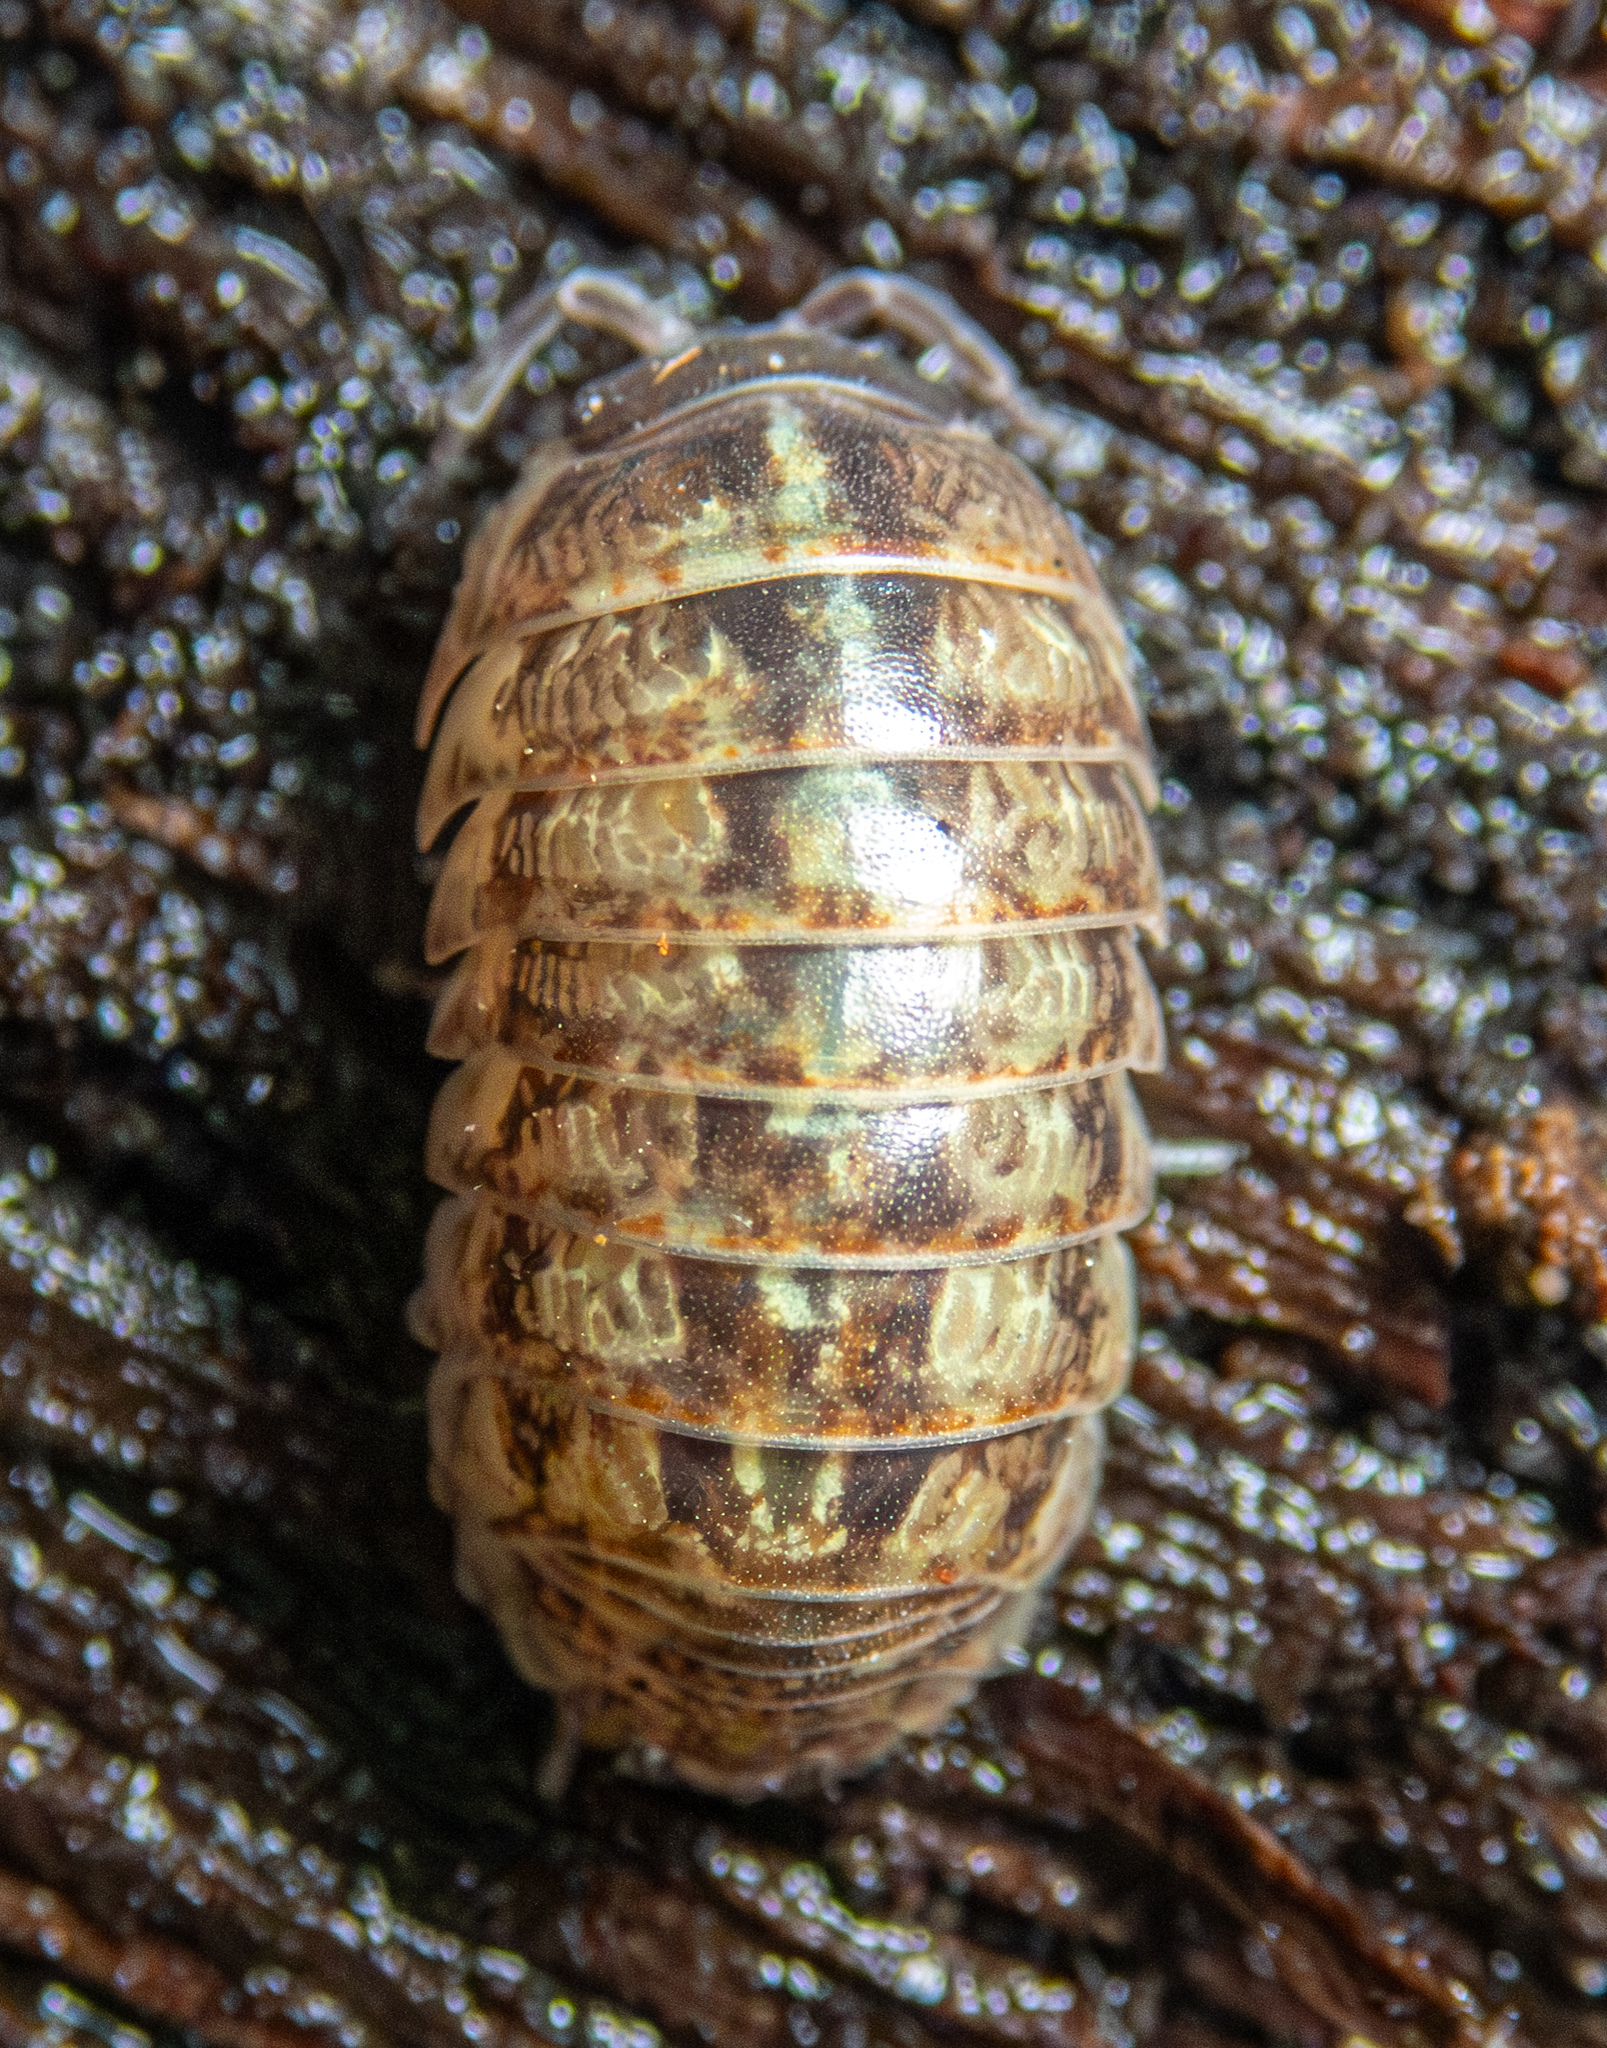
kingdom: Animalia
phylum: Arthropoda
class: Malacostraca
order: Isopoda
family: Armadillidiidae
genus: Armadillidium
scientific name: Armadillidium vulgare
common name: Common pill woodlouse
